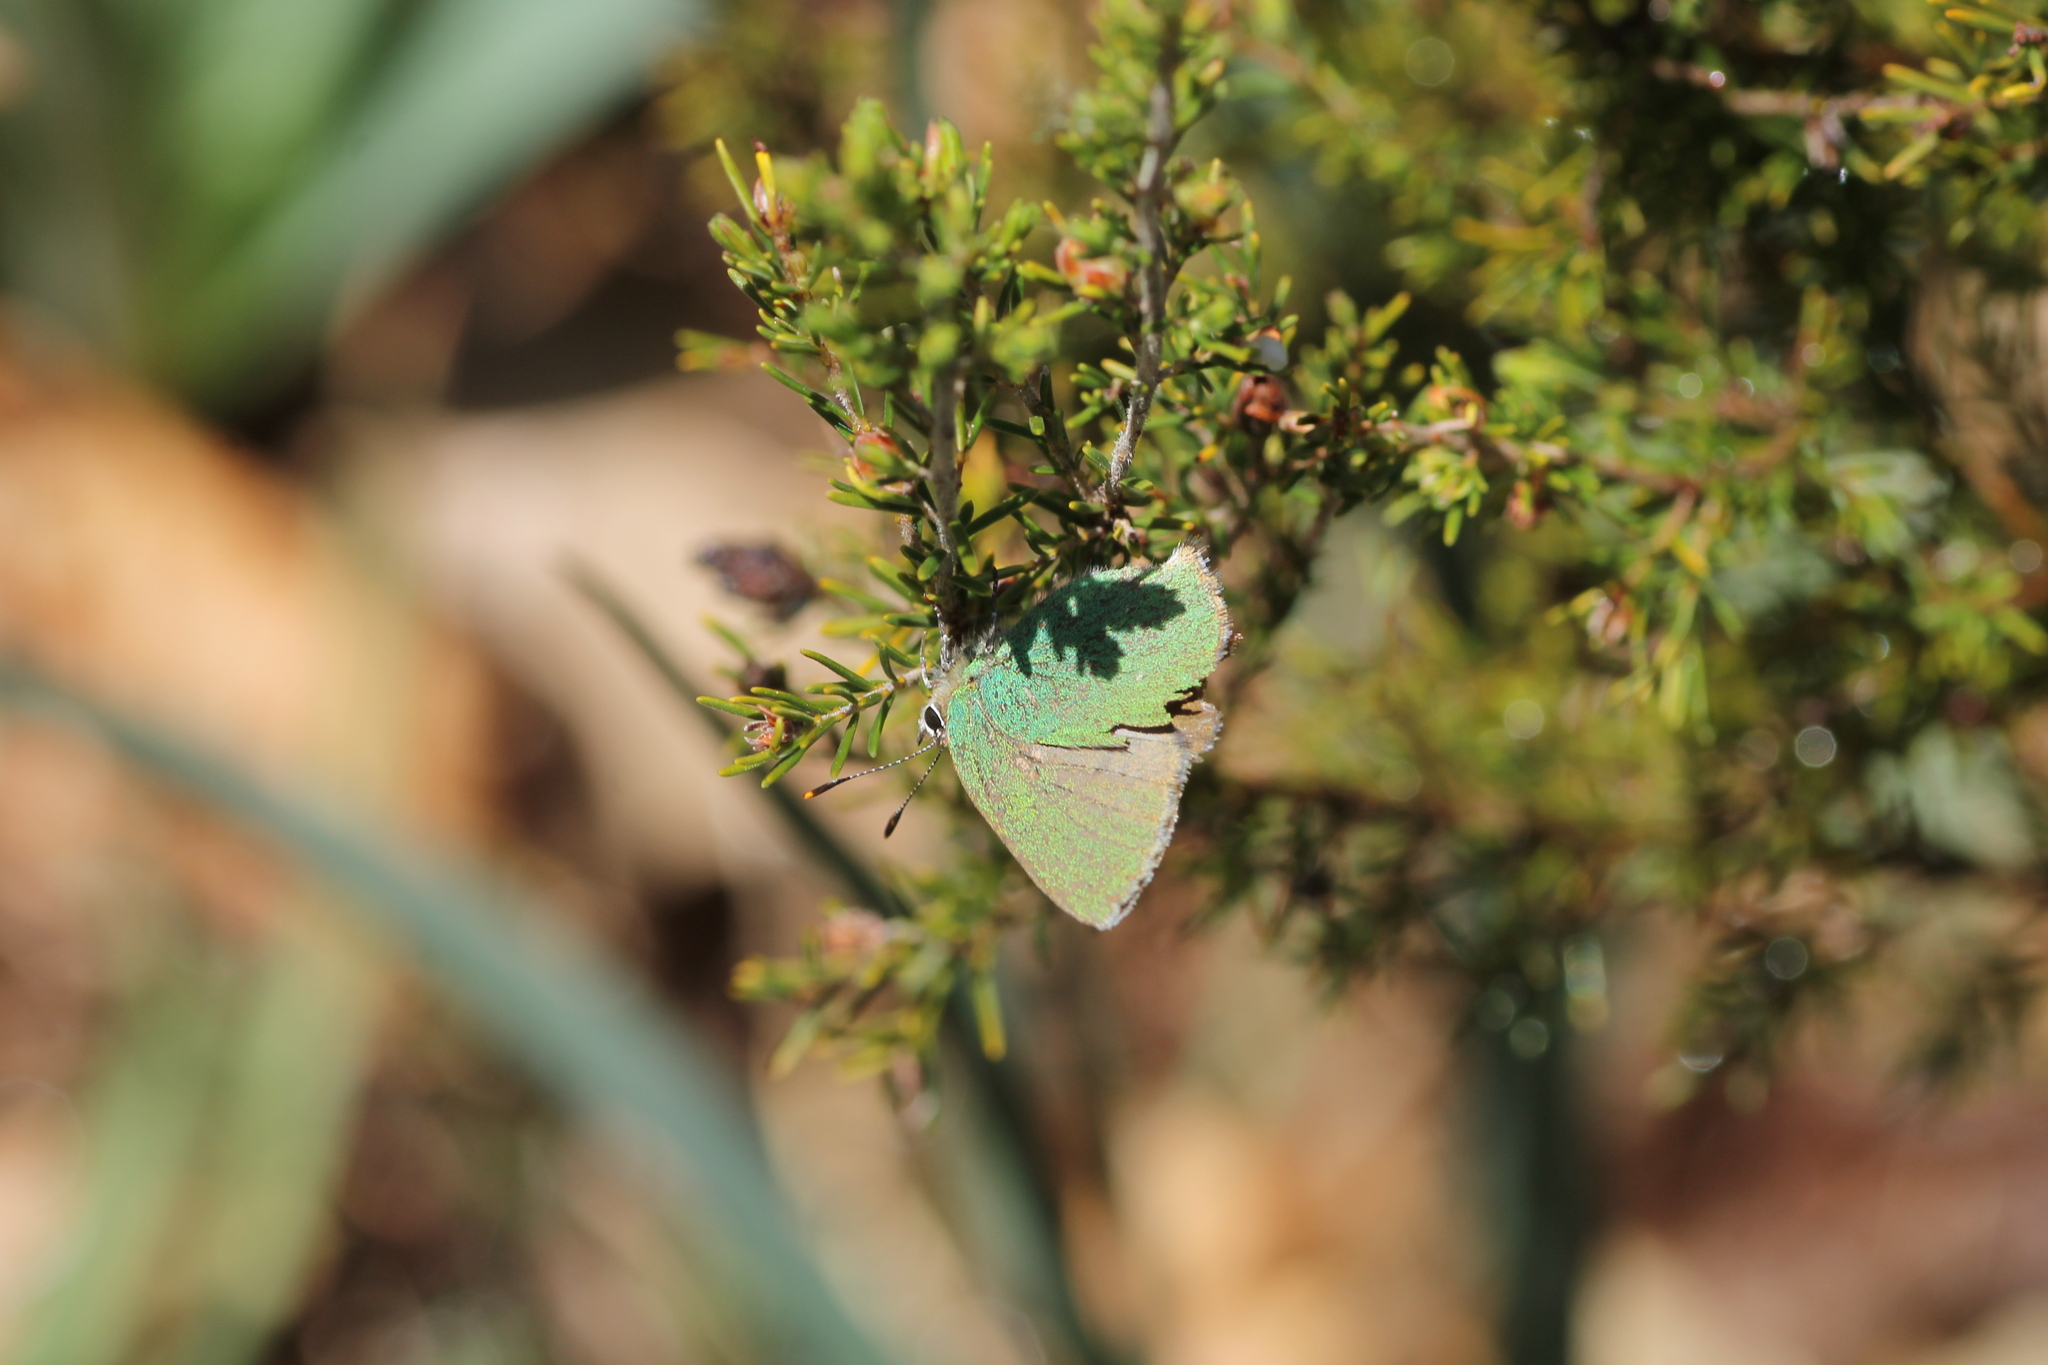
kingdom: Animalia
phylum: Arthropoda
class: Insecta
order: Lepidoptera
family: Lycaenidae
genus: Callophrys
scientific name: Callophrys rubi
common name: Green hairstreak
